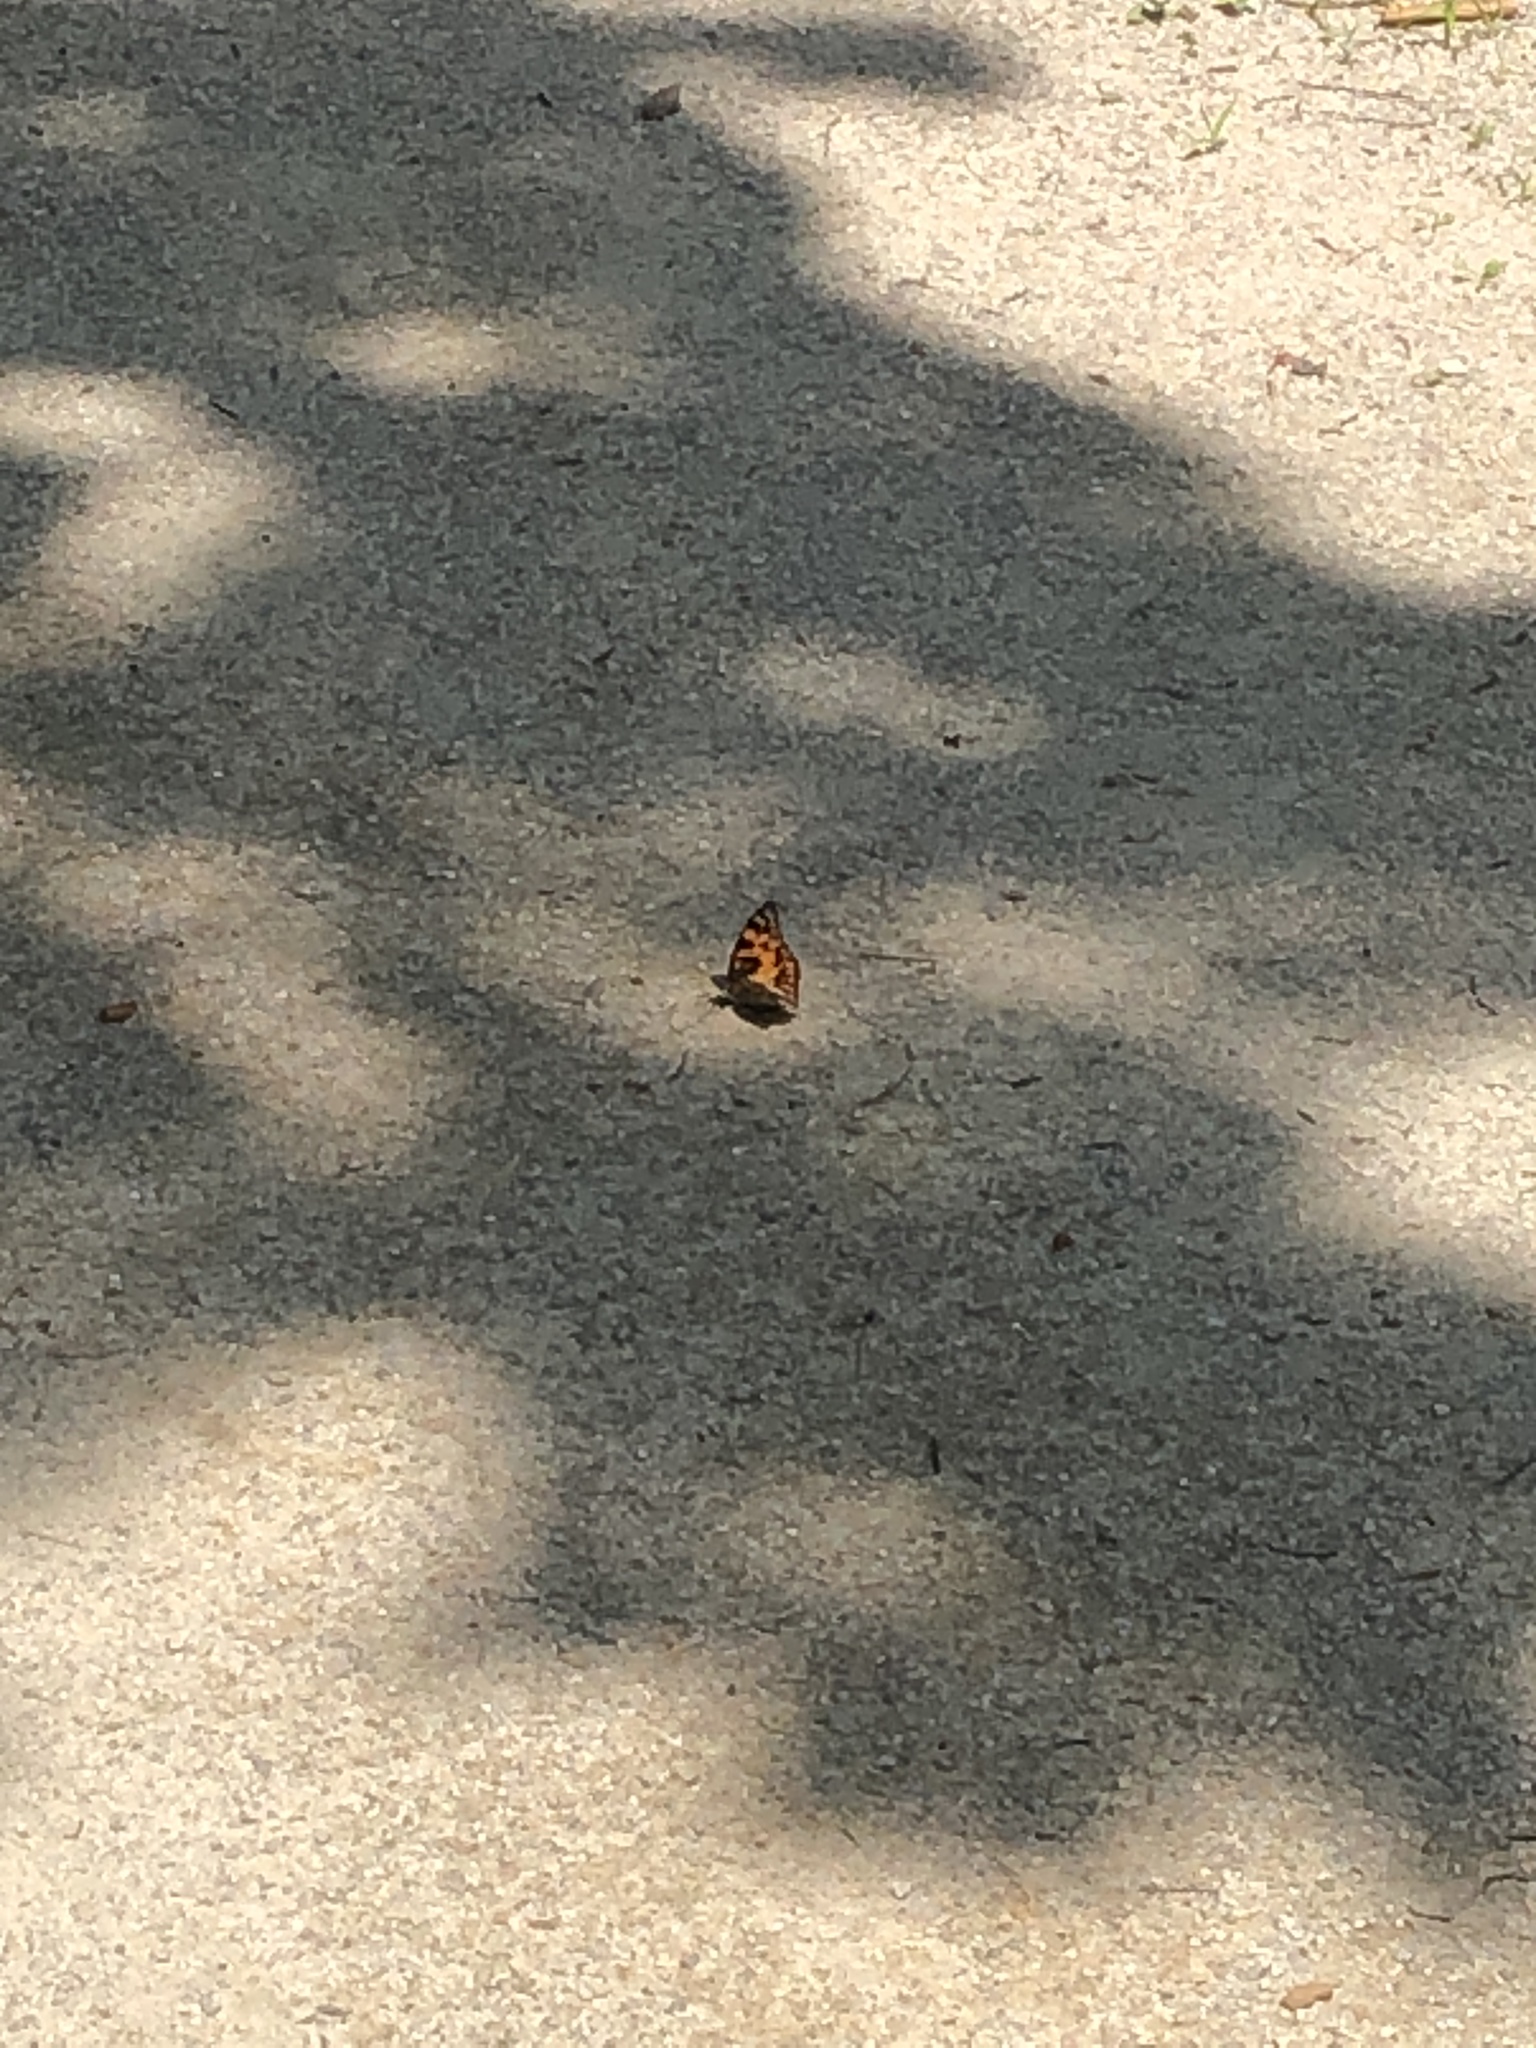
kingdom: Animalia
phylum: Arthropoda
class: Insecta
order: Lepidoptera
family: Nymphalidae
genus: Sephisa
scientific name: Sephisa dichroa
